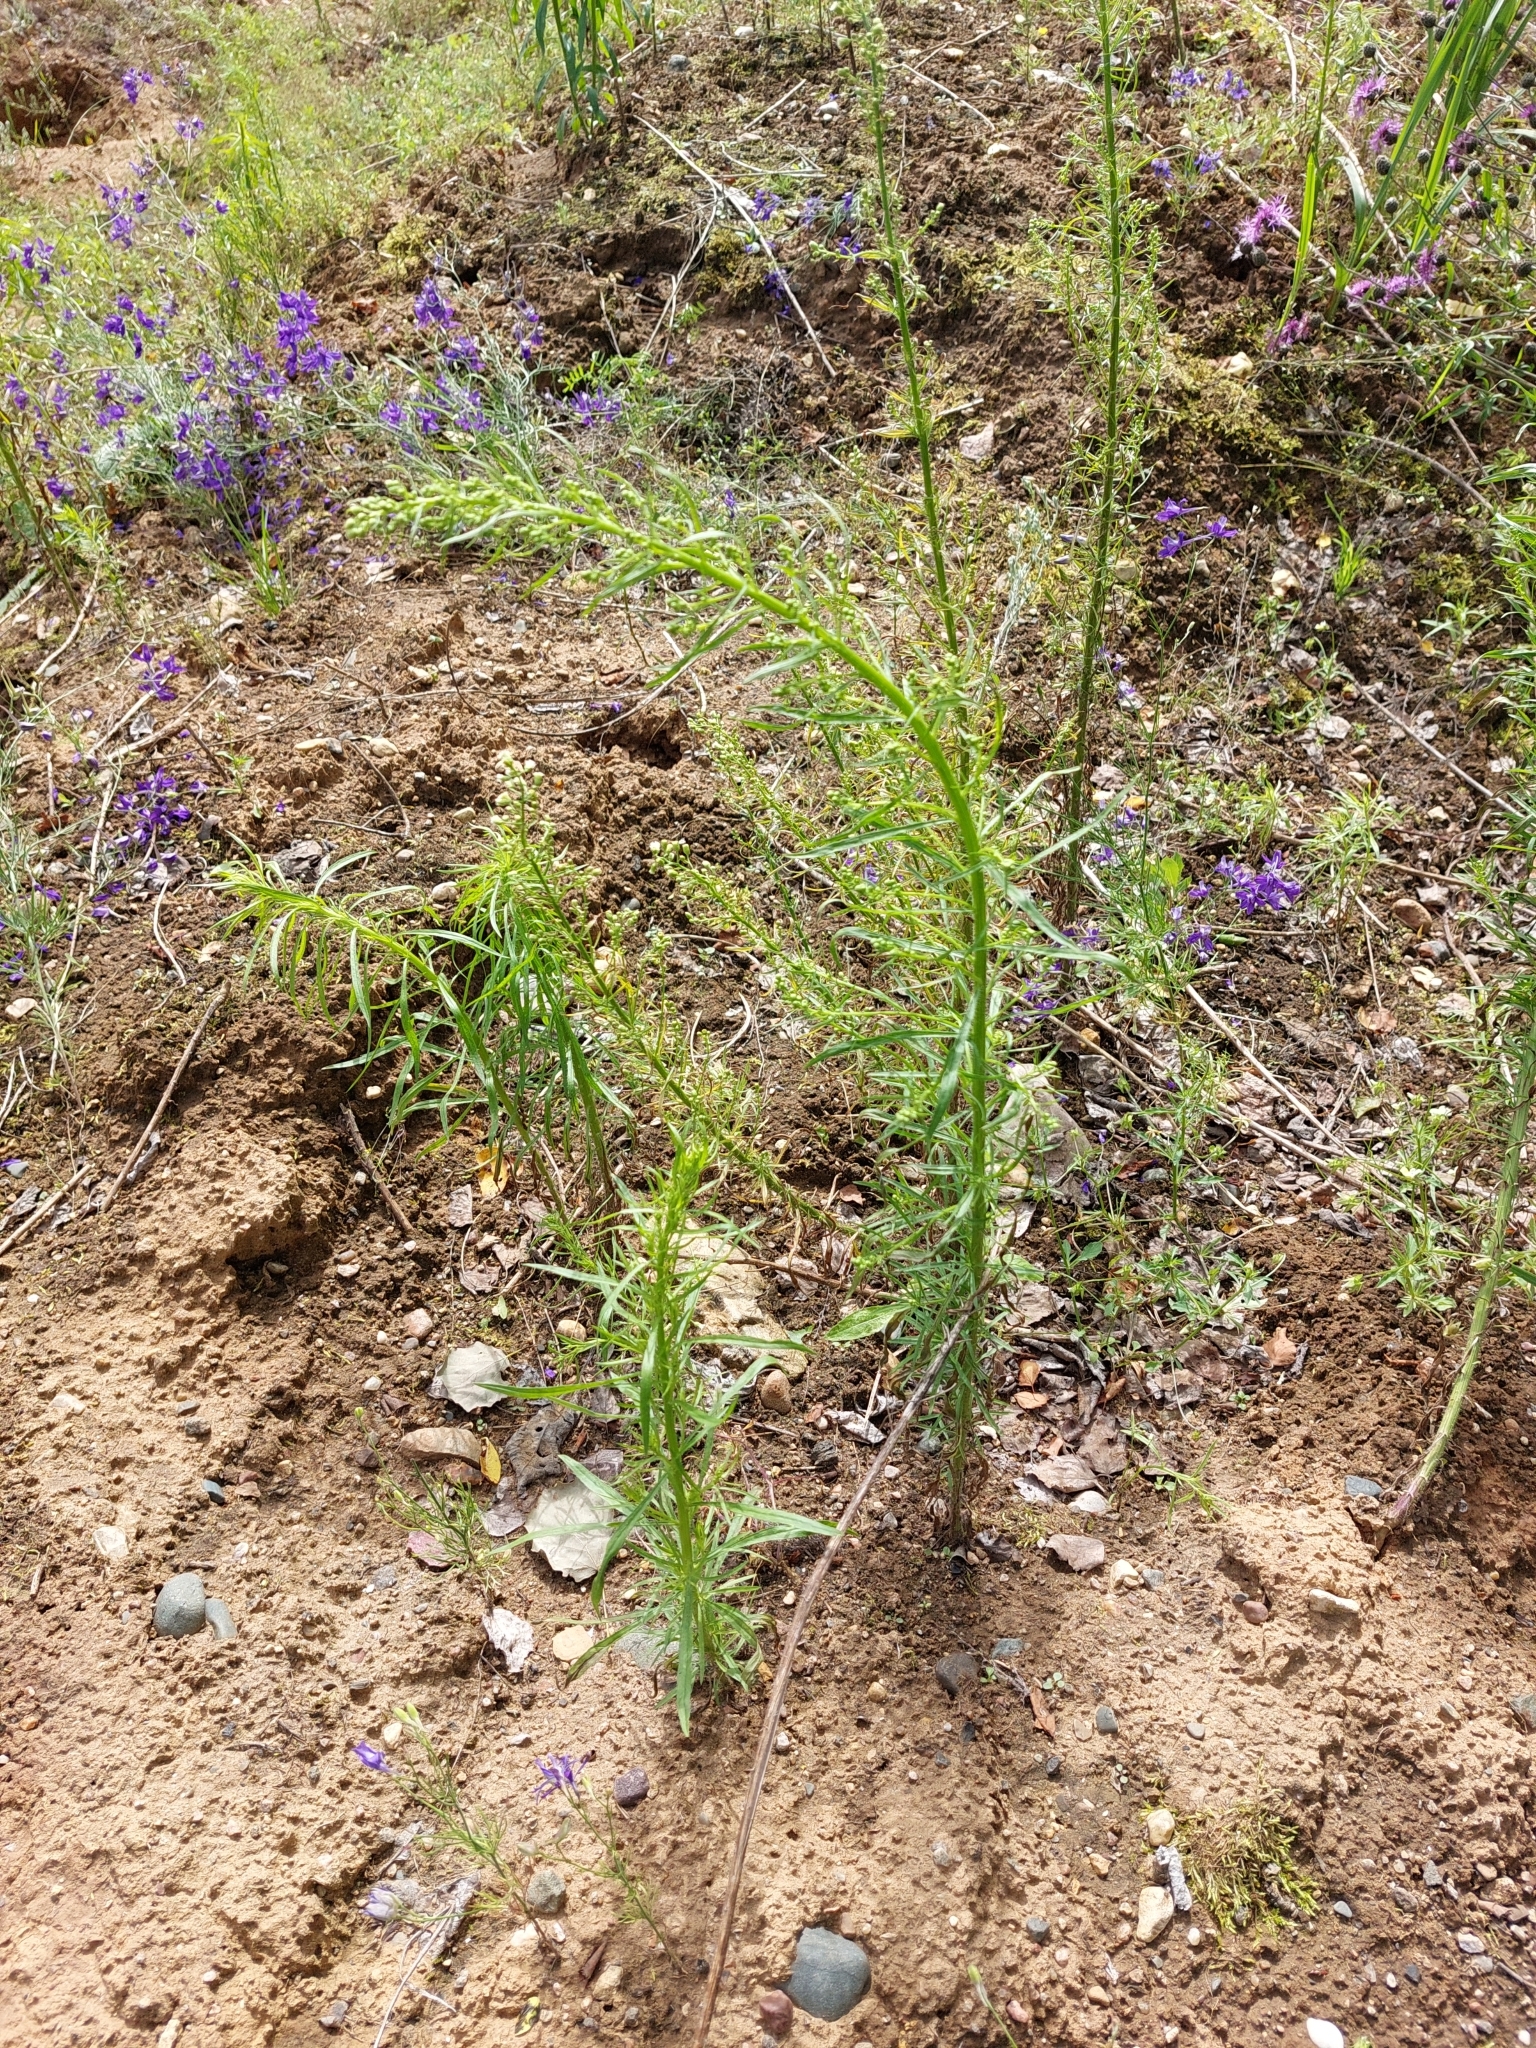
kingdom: Plantae
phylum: Tracheophyta
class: Magnoliopsida
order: Asterales
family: Asteraceae
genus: Erigeron
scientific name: Erigeron canadensis
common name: Canadian fleabane
